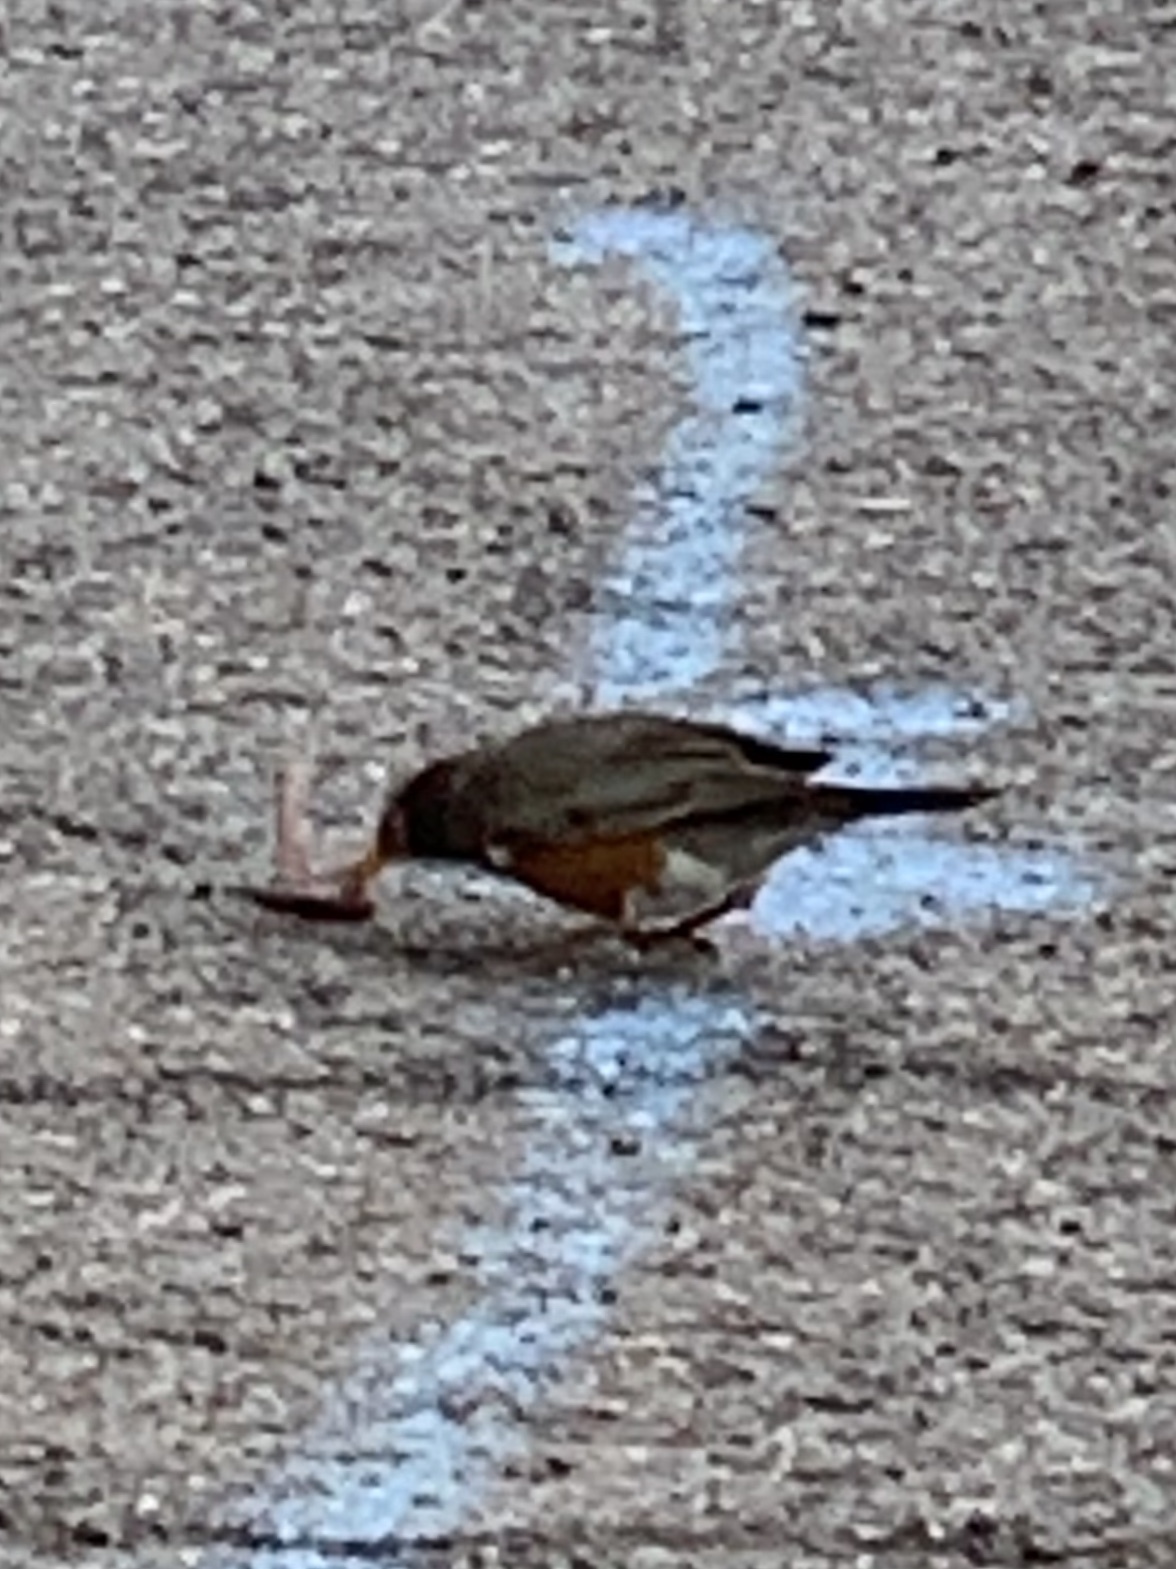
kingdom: Animalia
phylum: Chordata
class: Aves
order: Passeriformes
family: Turdidae
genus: Turdus
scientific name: Turdus migratorius
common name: American robin
